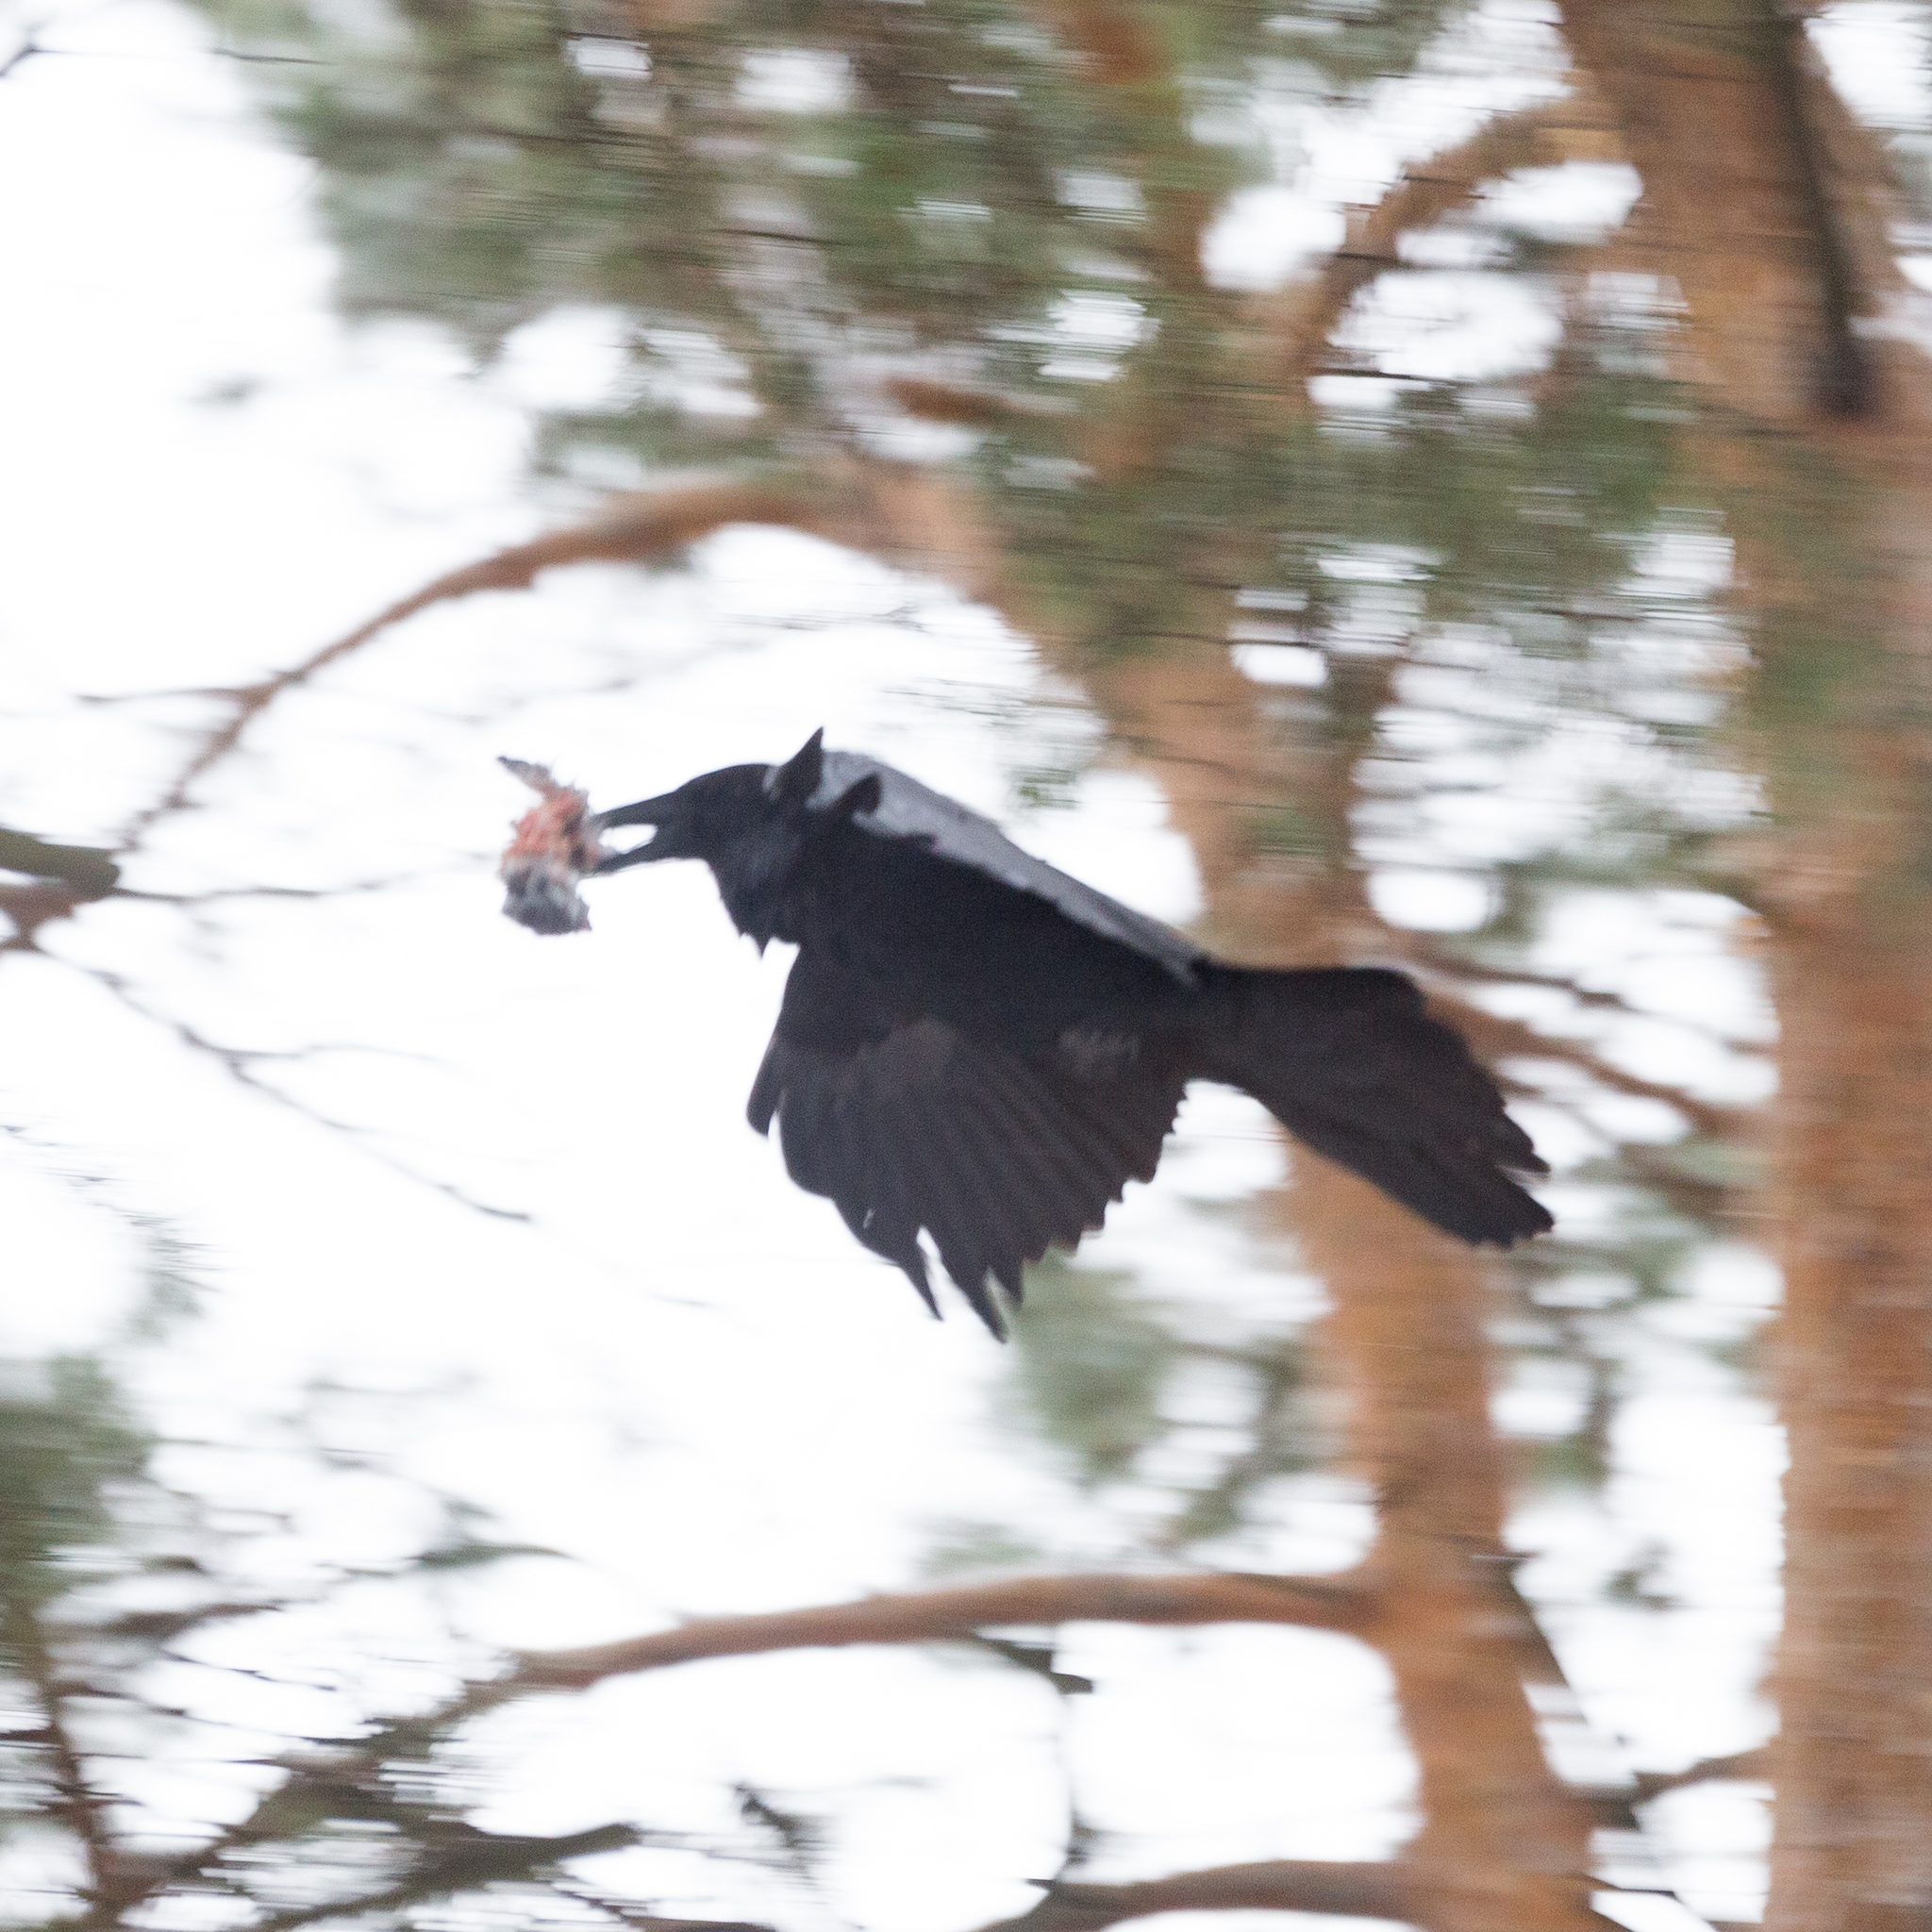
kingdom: Animalia
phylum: Chordata
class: Aves
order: Passeriformes
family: Corvidae
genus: Corvus
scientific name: Corvus corax
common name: Common raven
